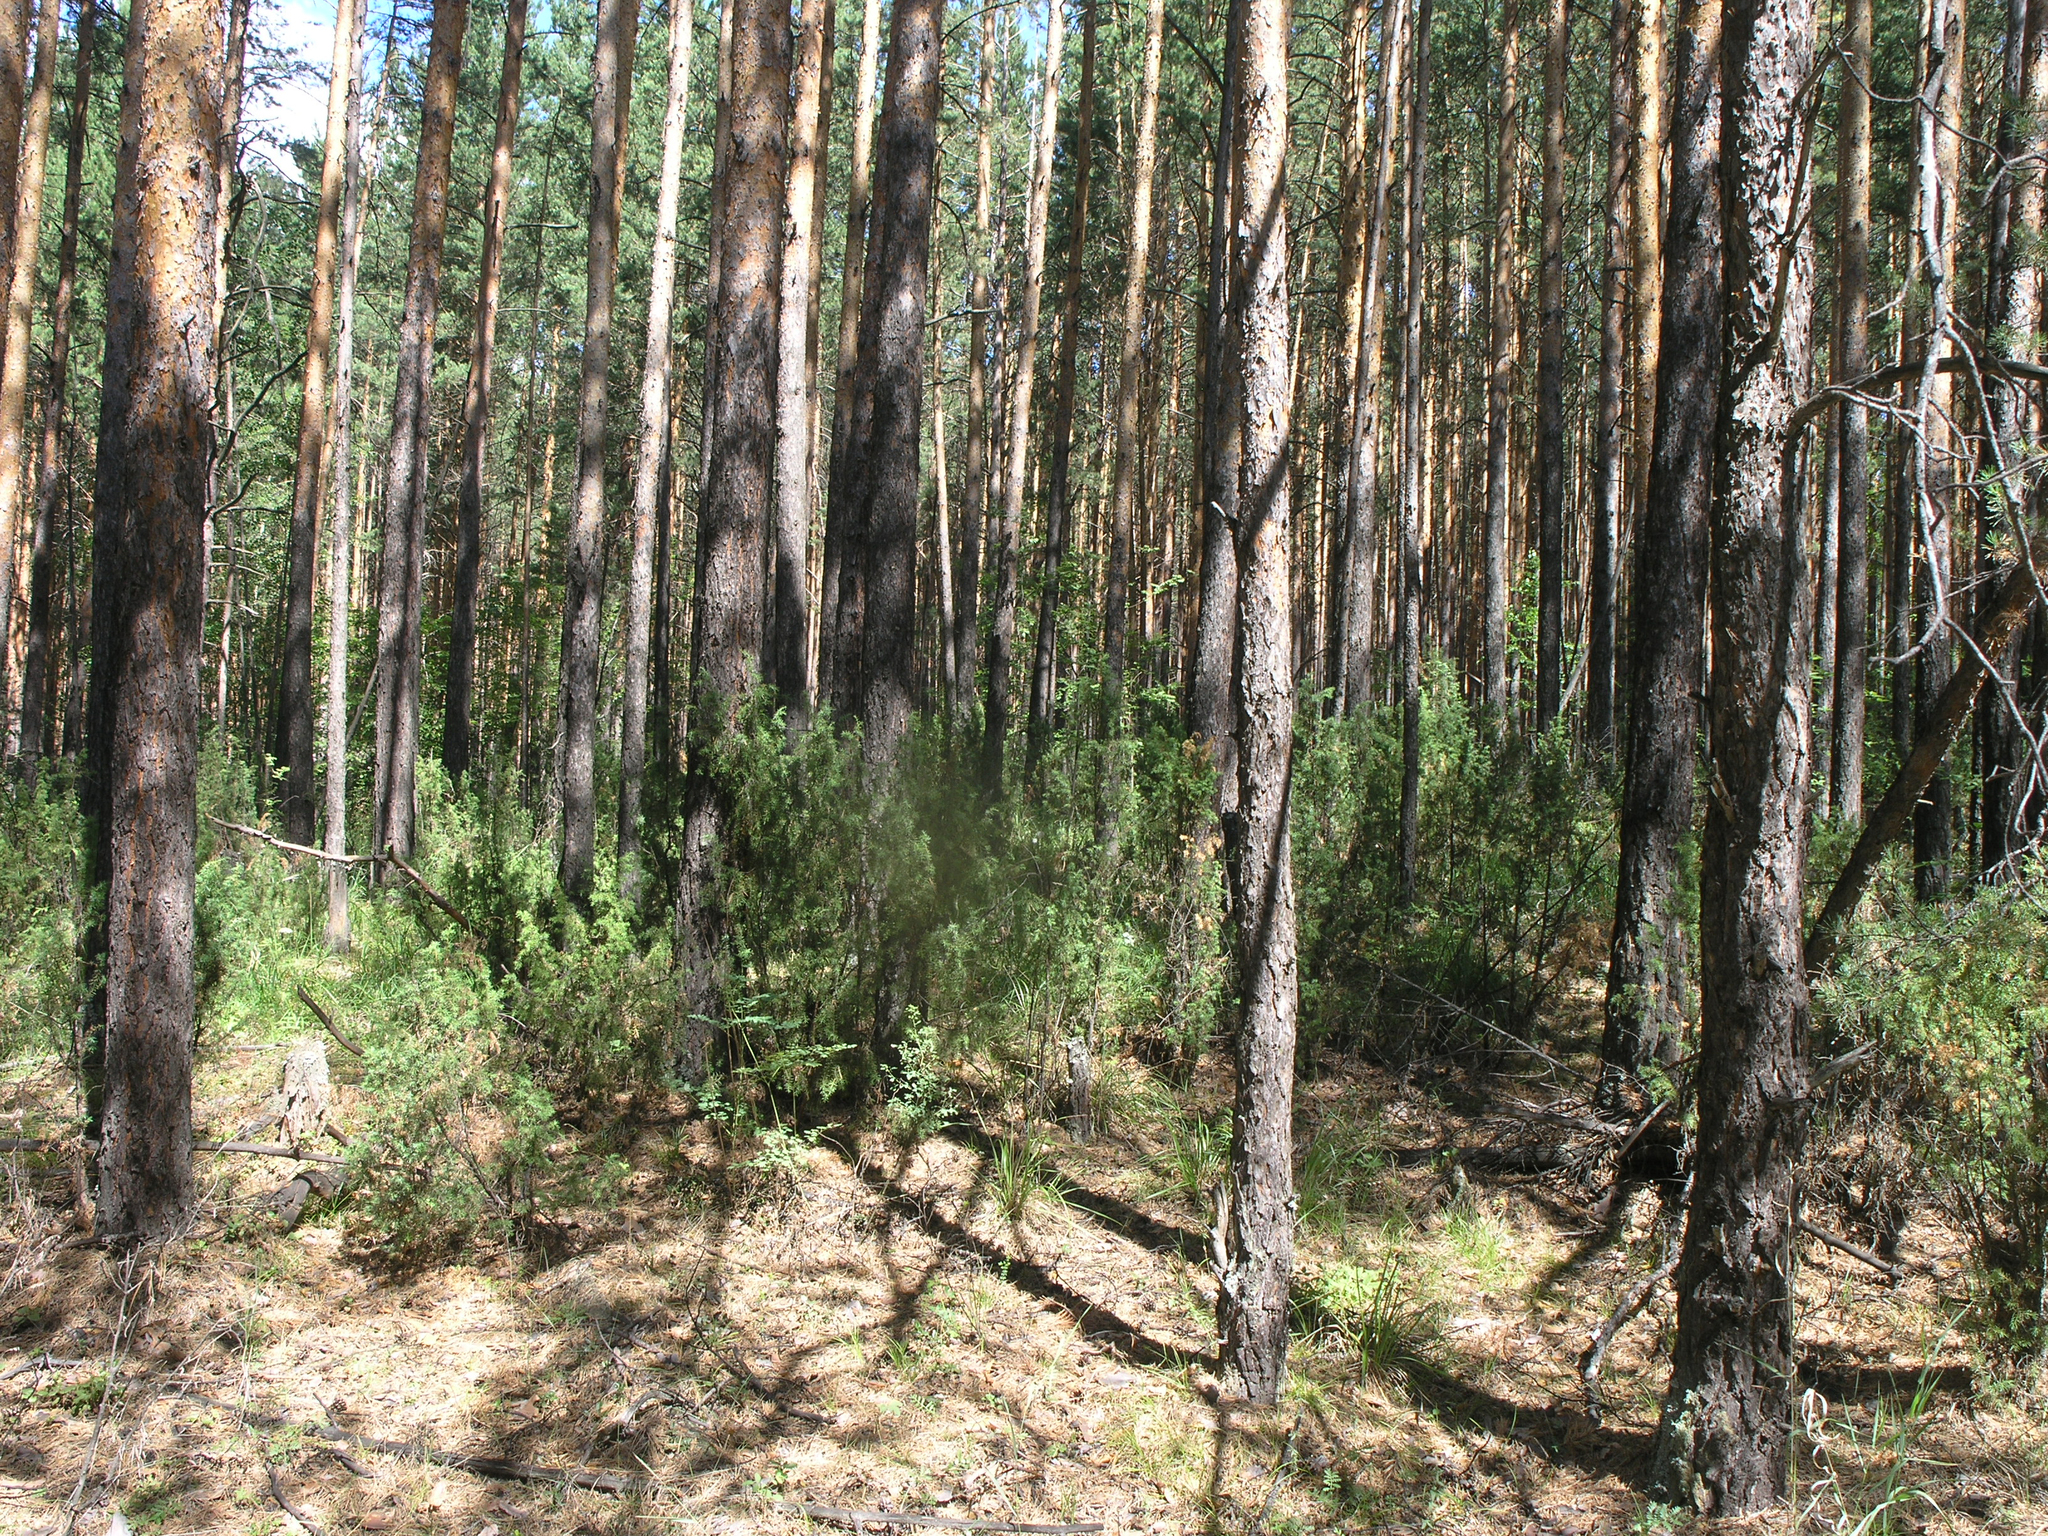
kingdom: Plantae
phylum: Tracheophyta
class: Pinopsida
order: Pinales
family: Cupressaceae
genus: Juniperus
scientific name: Juniperus communis
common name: Common juniper
